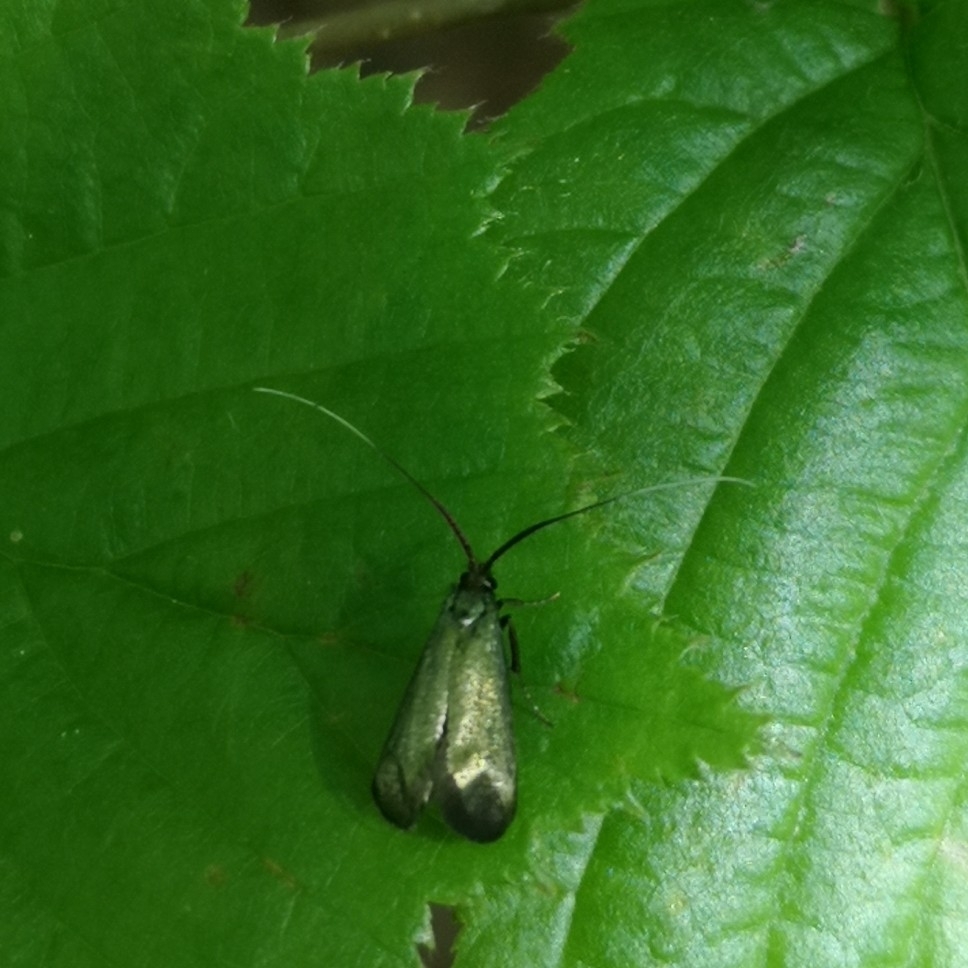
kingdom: Animalia
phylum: Arthropoda
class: Insecta
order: Lepidoptera
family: Adelidae
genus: Adela
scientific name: Adela viridella
